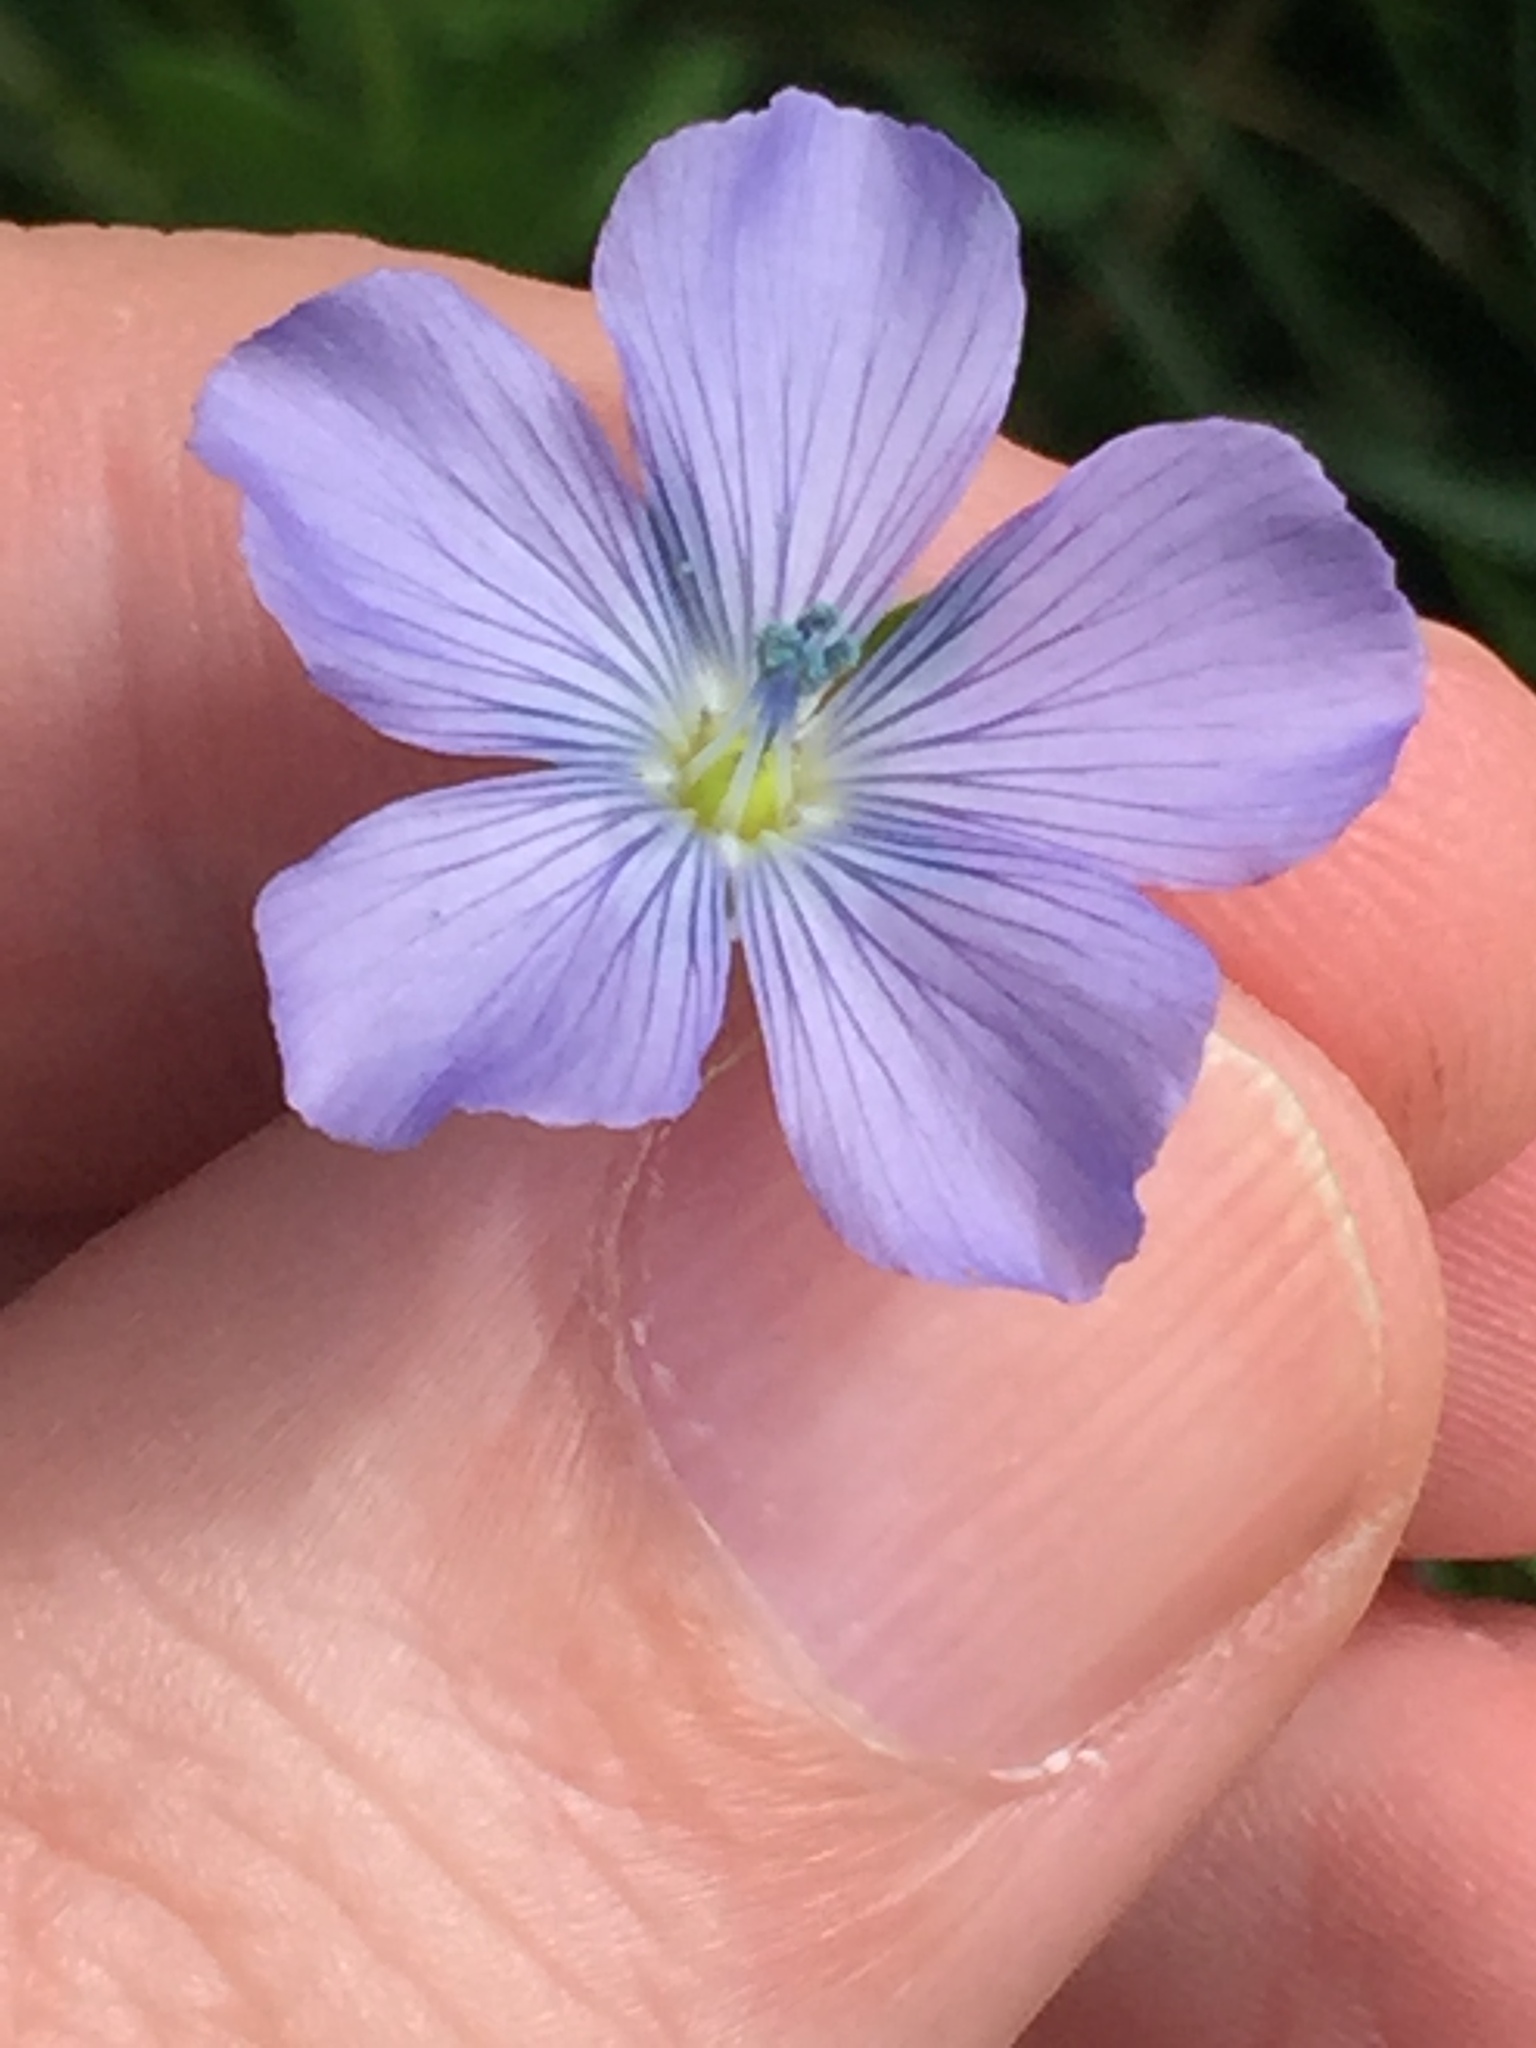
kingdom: Plantae
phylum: Tracheophyta
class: Magnoliopsida
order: Malpighiales
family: Linaceae
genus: Linum
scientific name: Linum bienne
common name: Pale flax
